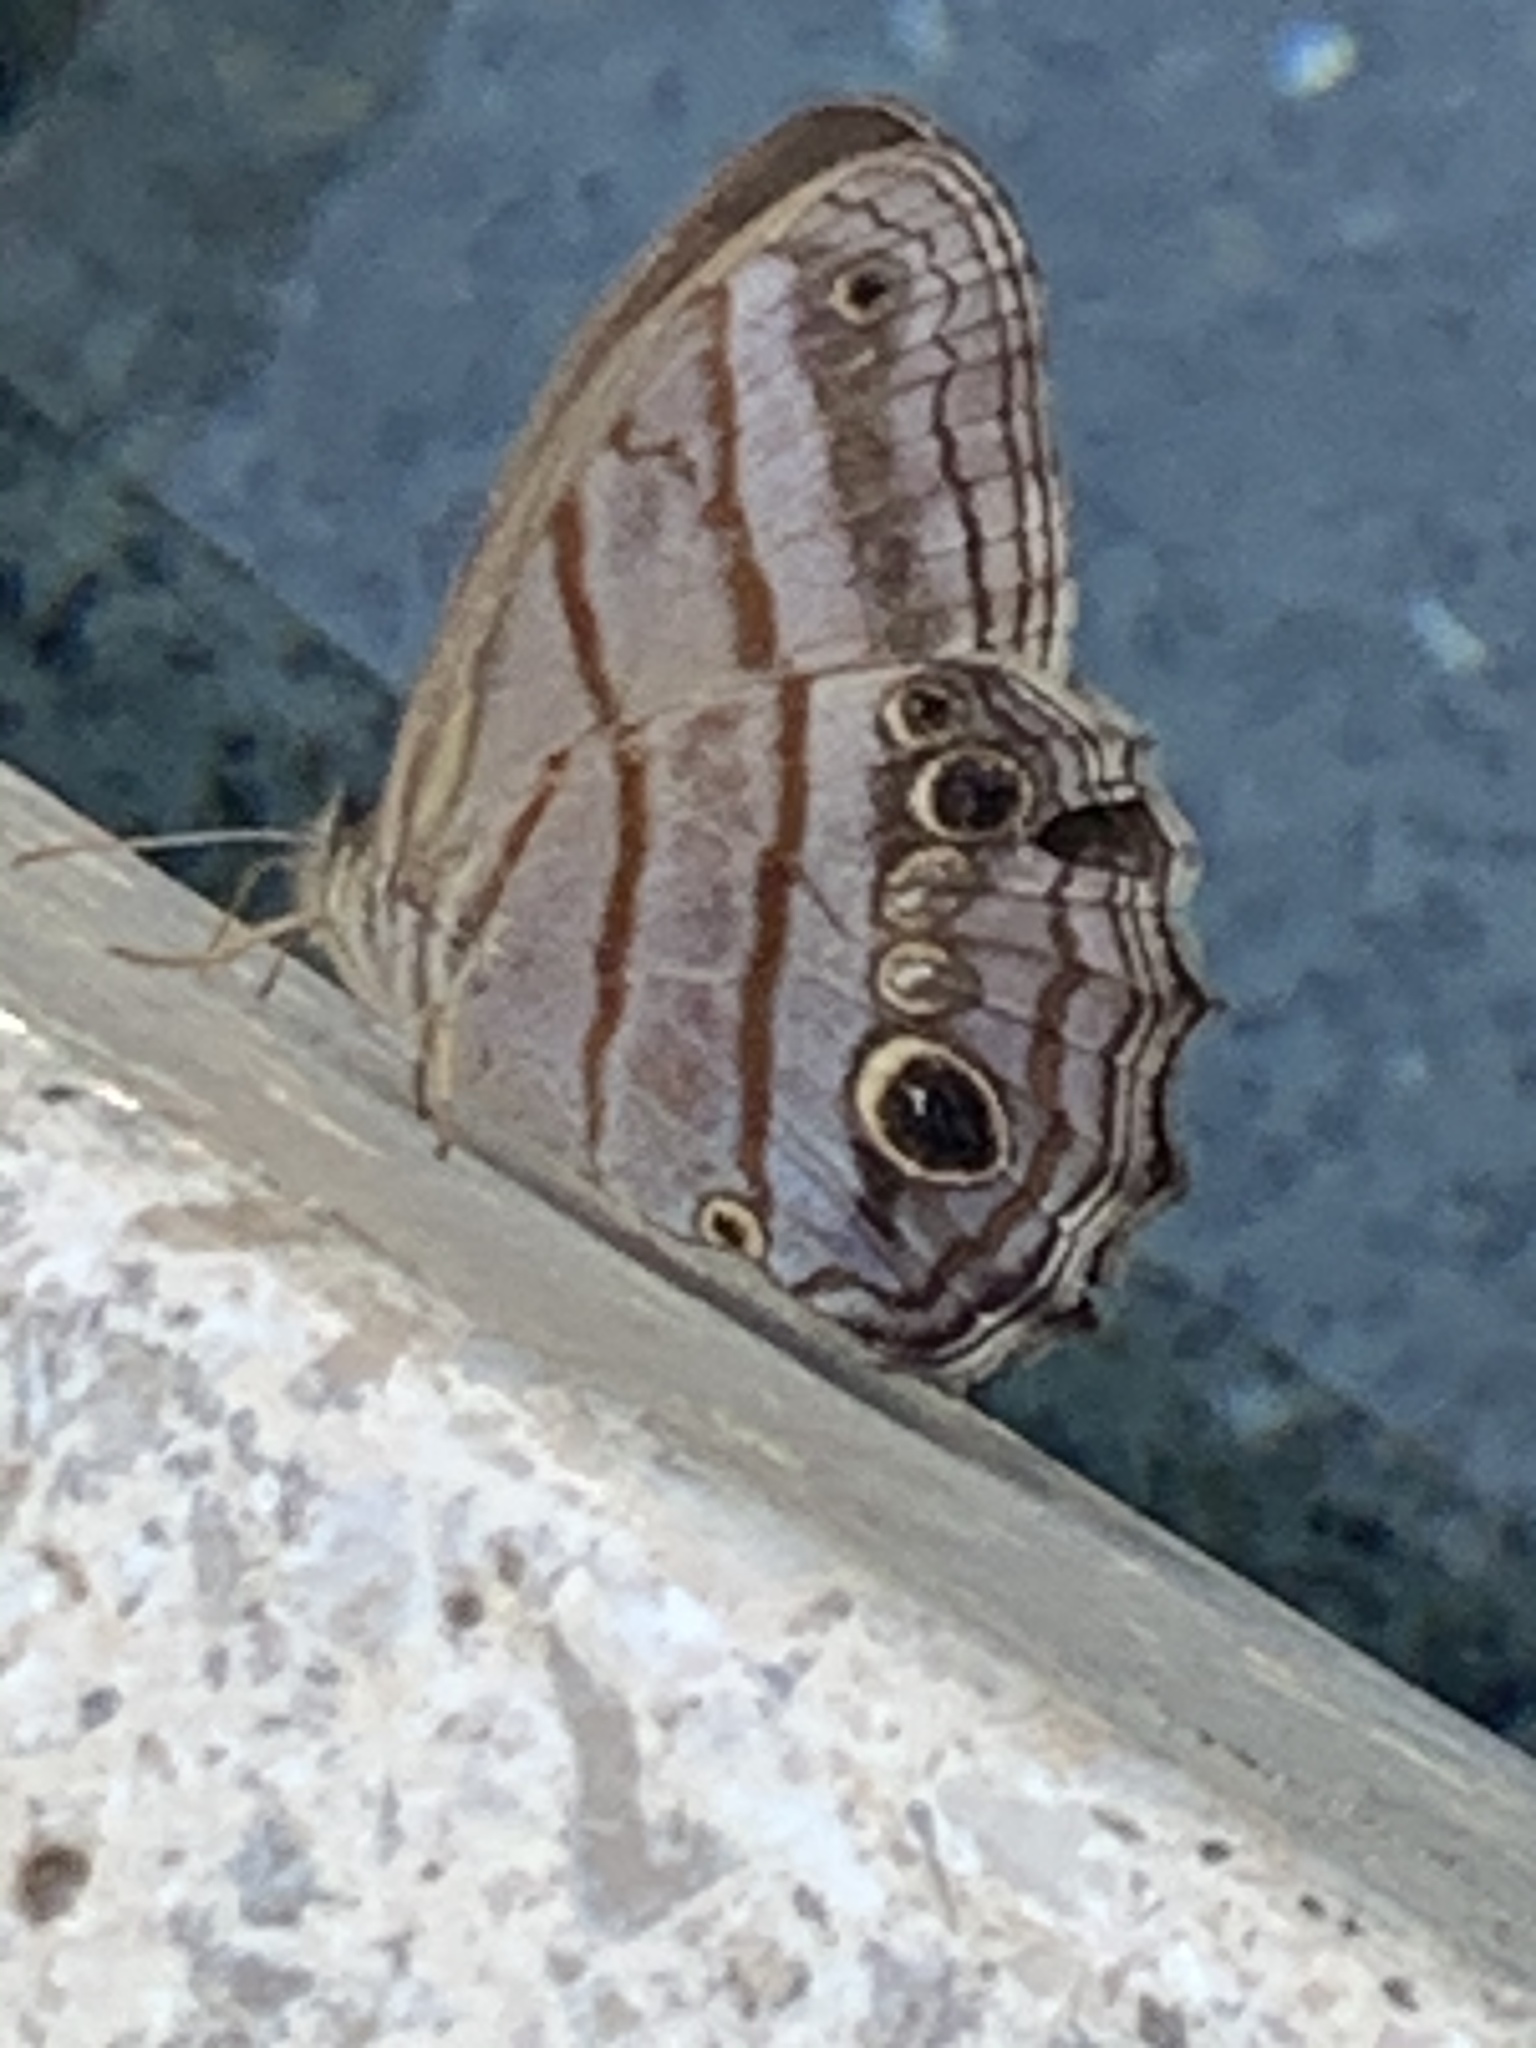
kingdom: Animalia
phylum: Arthropoda
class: Insecta
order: Lepidoptera
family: Nymphalidae
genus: Magneuptychia
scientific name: Magneuptychia libye
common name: Blue-gray satyr
